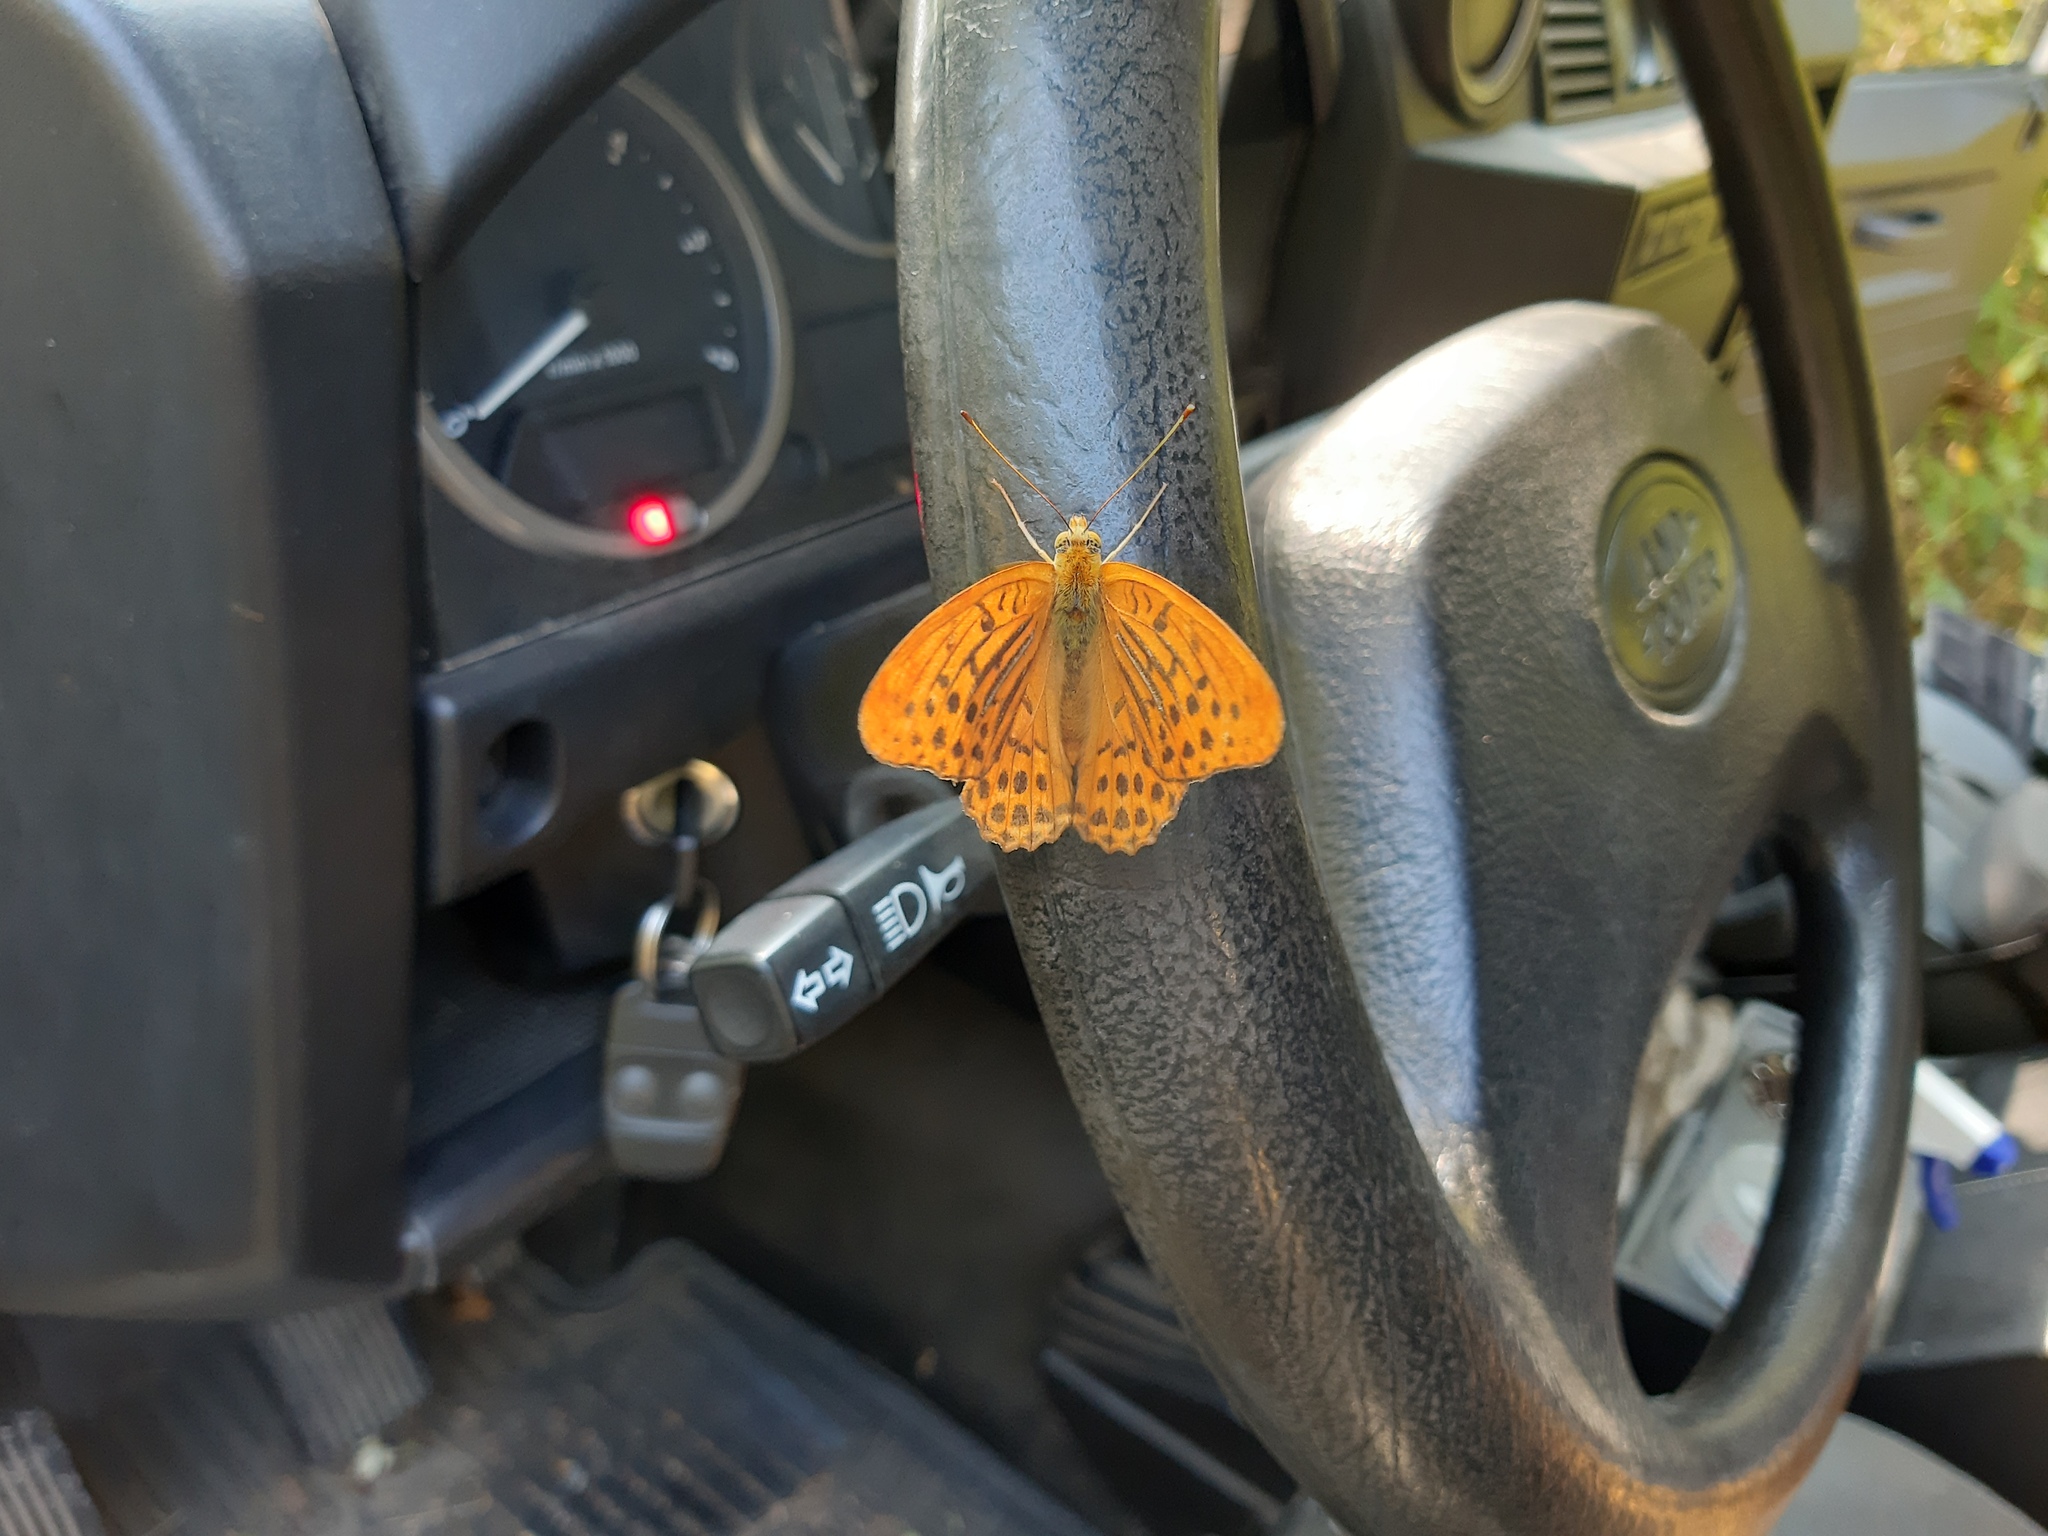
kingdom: Animalia
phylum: Arthropoda
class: Insecta
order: Lepidoptera
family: Nymphalidae
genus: Argynnis
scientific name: Argynnis paphia
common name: Silver-washed fritillary
